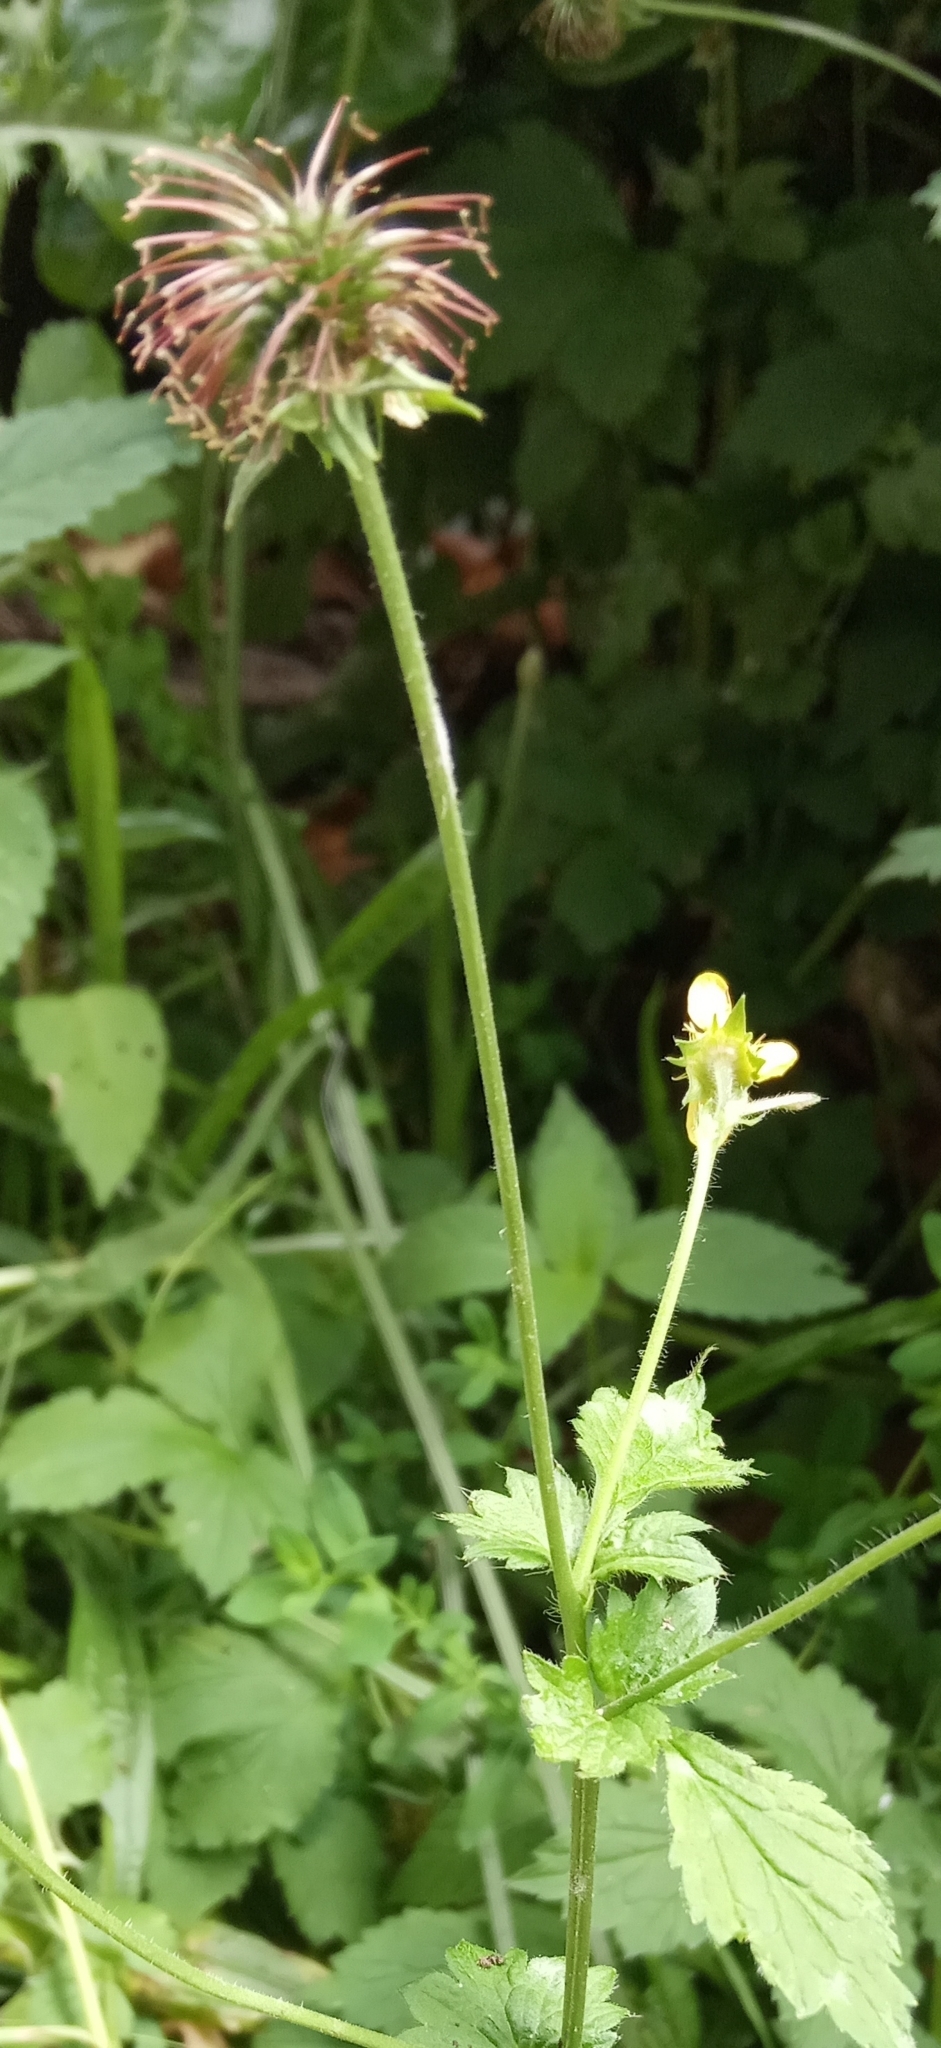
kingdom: Plantae
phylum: Tracheophyta
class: Magnoliopsida
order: Rosales
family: Rosaceae
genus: Geum
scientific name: Geum urbanum
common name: Wood avens
